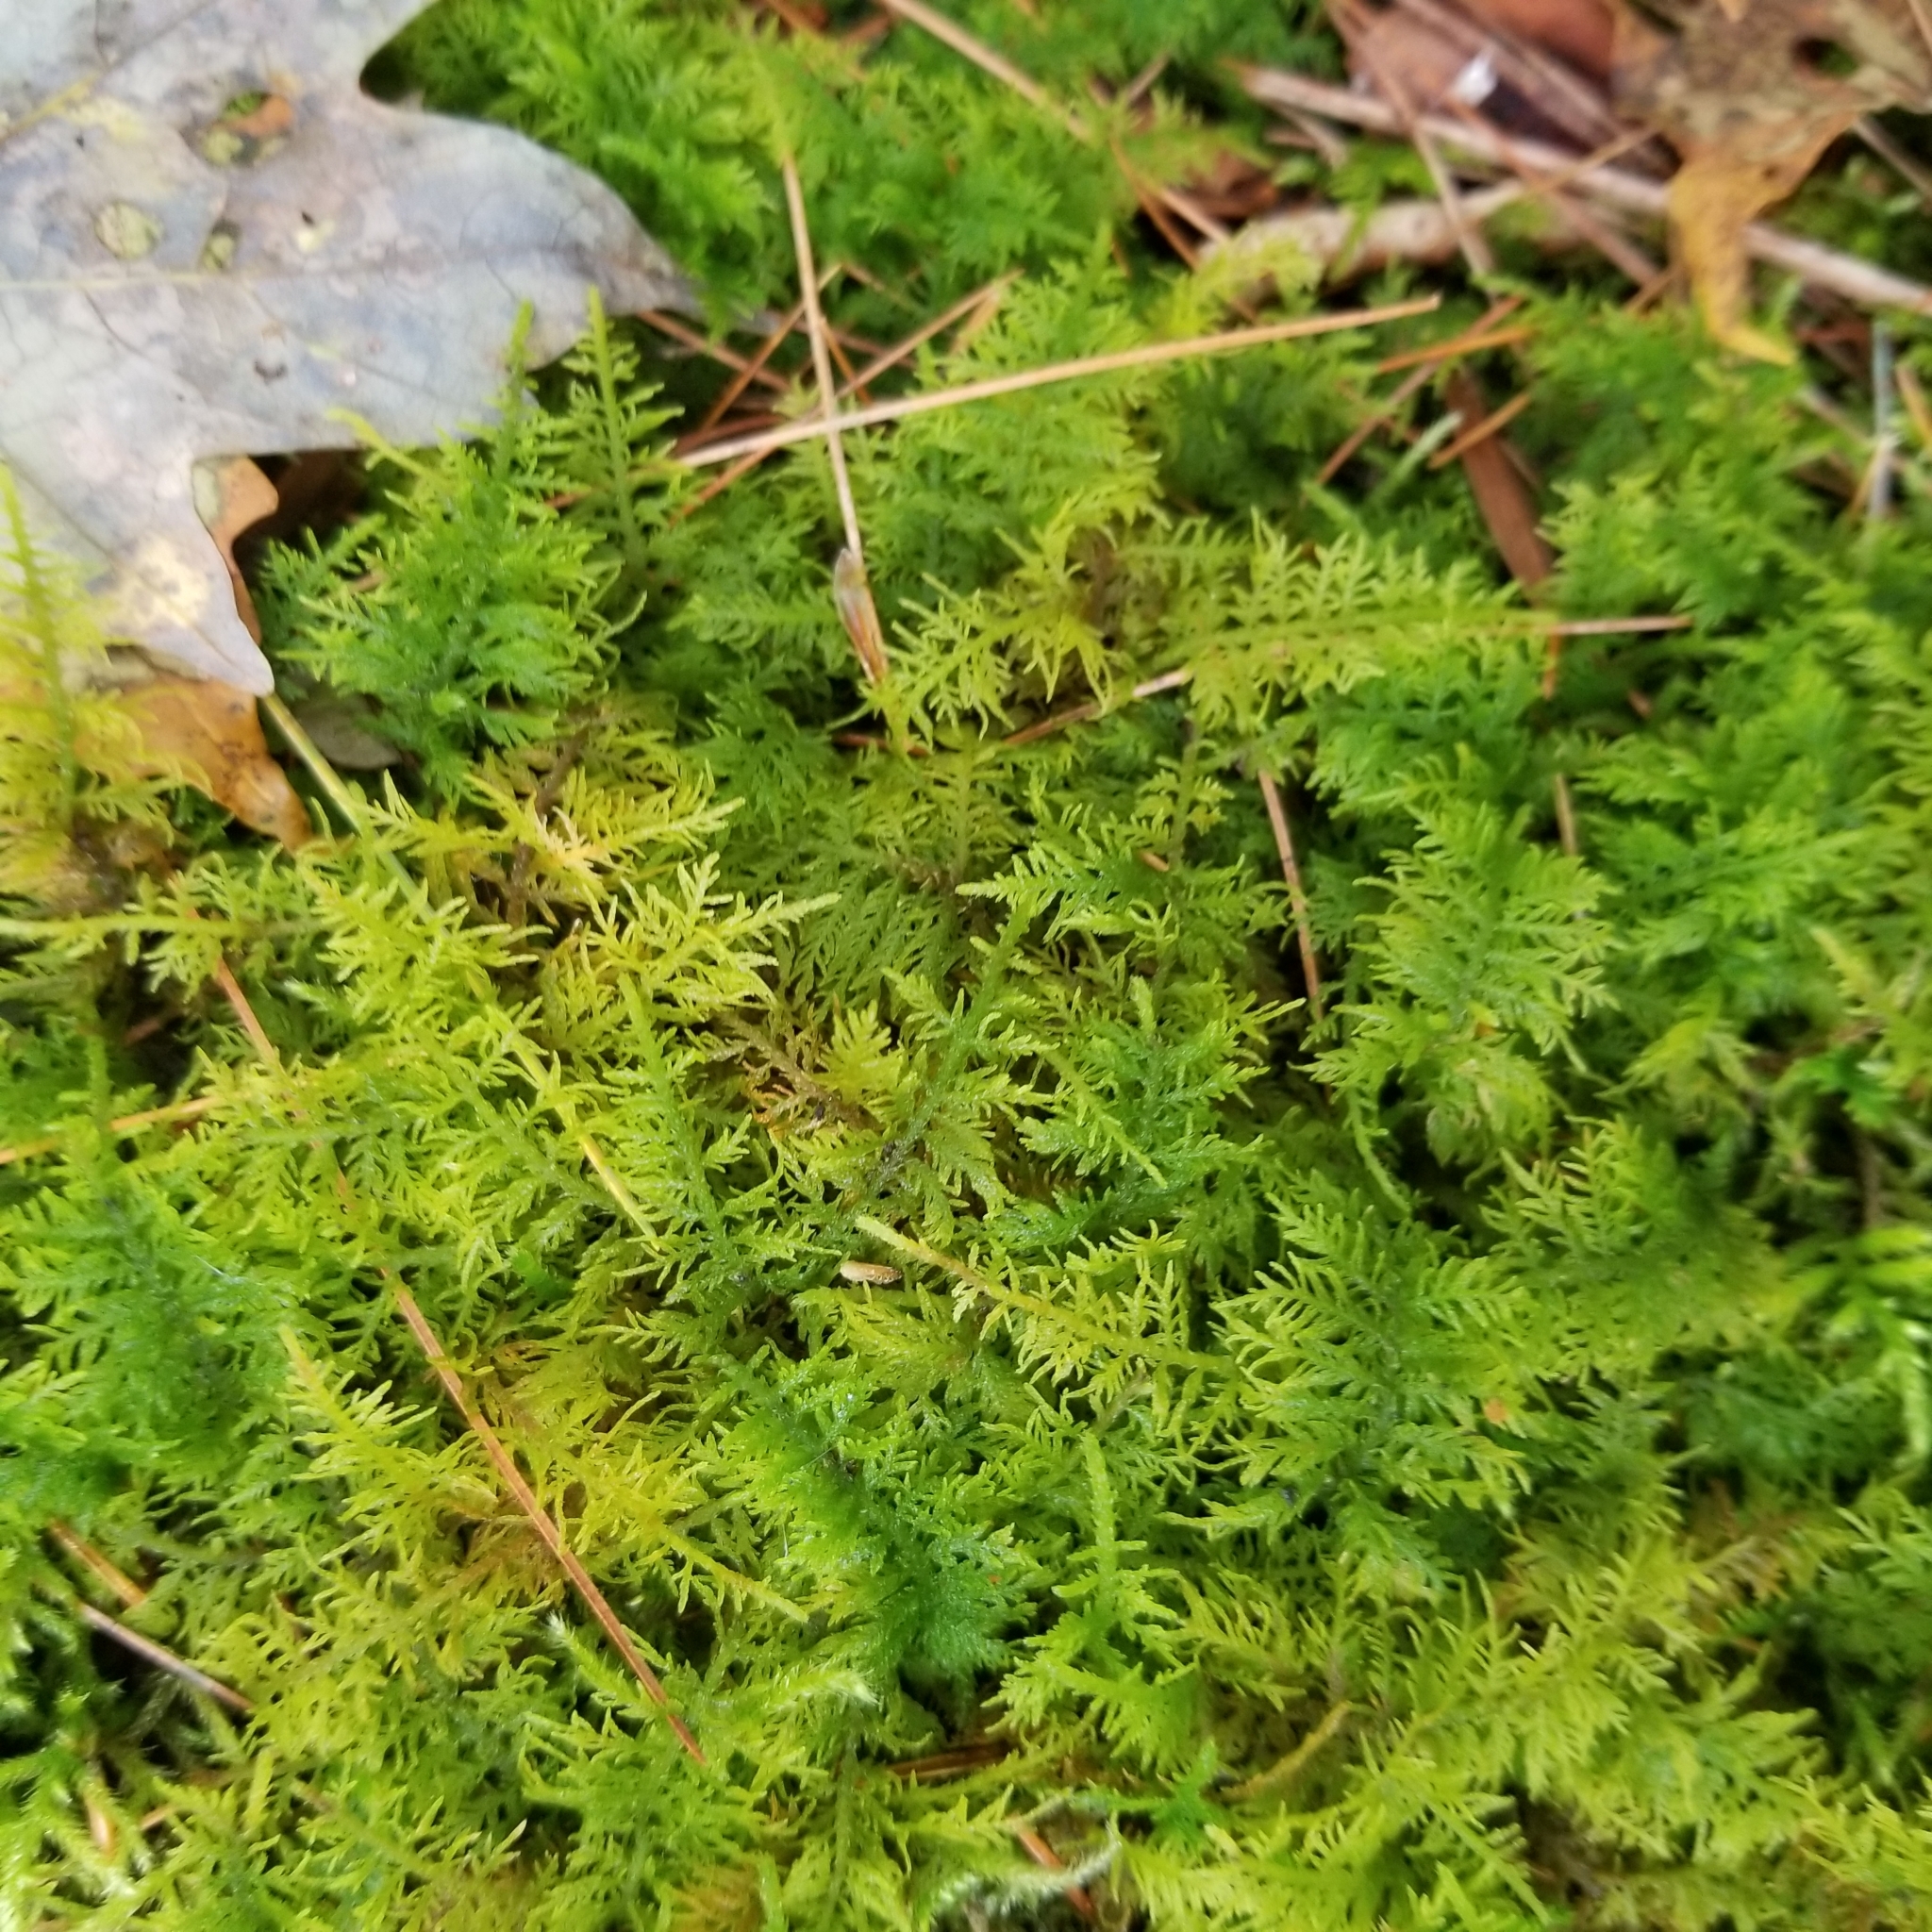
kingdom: Plantae
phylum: Bryophyta
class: Bryopsida
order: Hypnales
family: Thuidiaceae
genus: Thuidium
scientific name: Thuidium delicatulum
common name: Delicate fern moss
